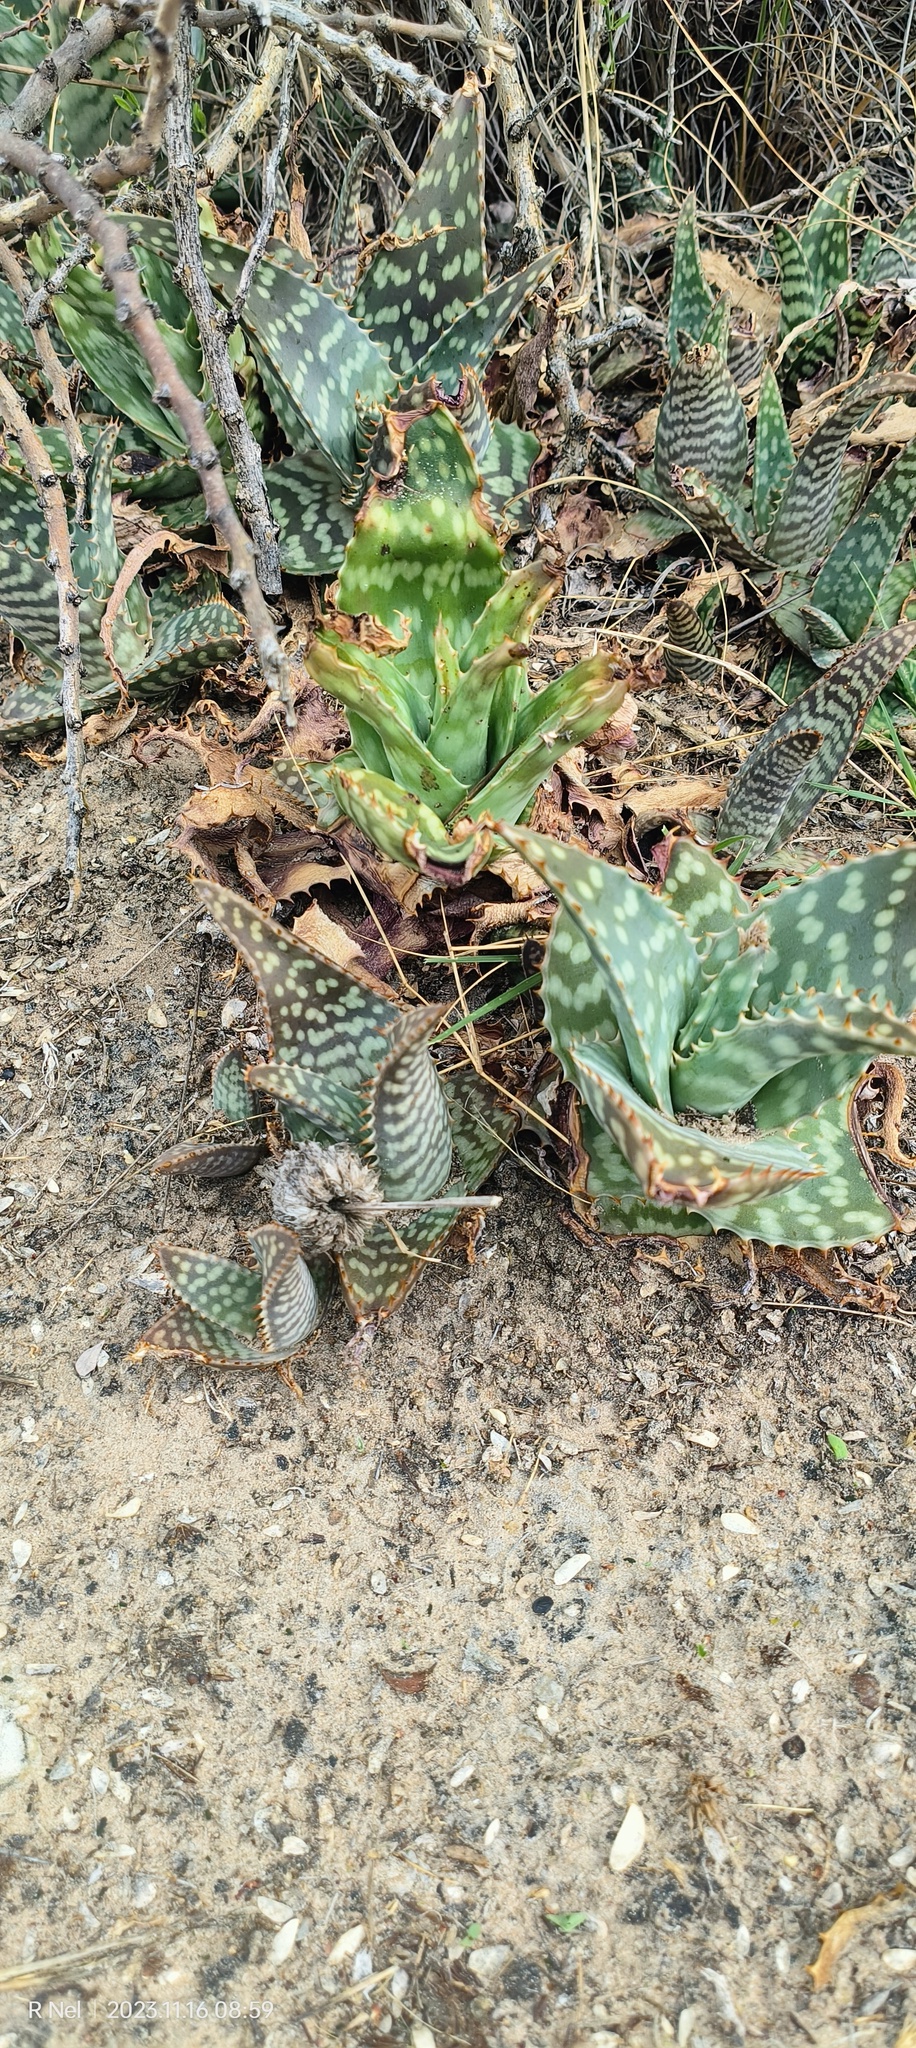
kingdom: Plantae
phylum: Tracheophyta
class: Liliopsida
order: Asparagales
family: Asphodelaceae
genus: Aloe
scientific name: Aloe grandidentata
